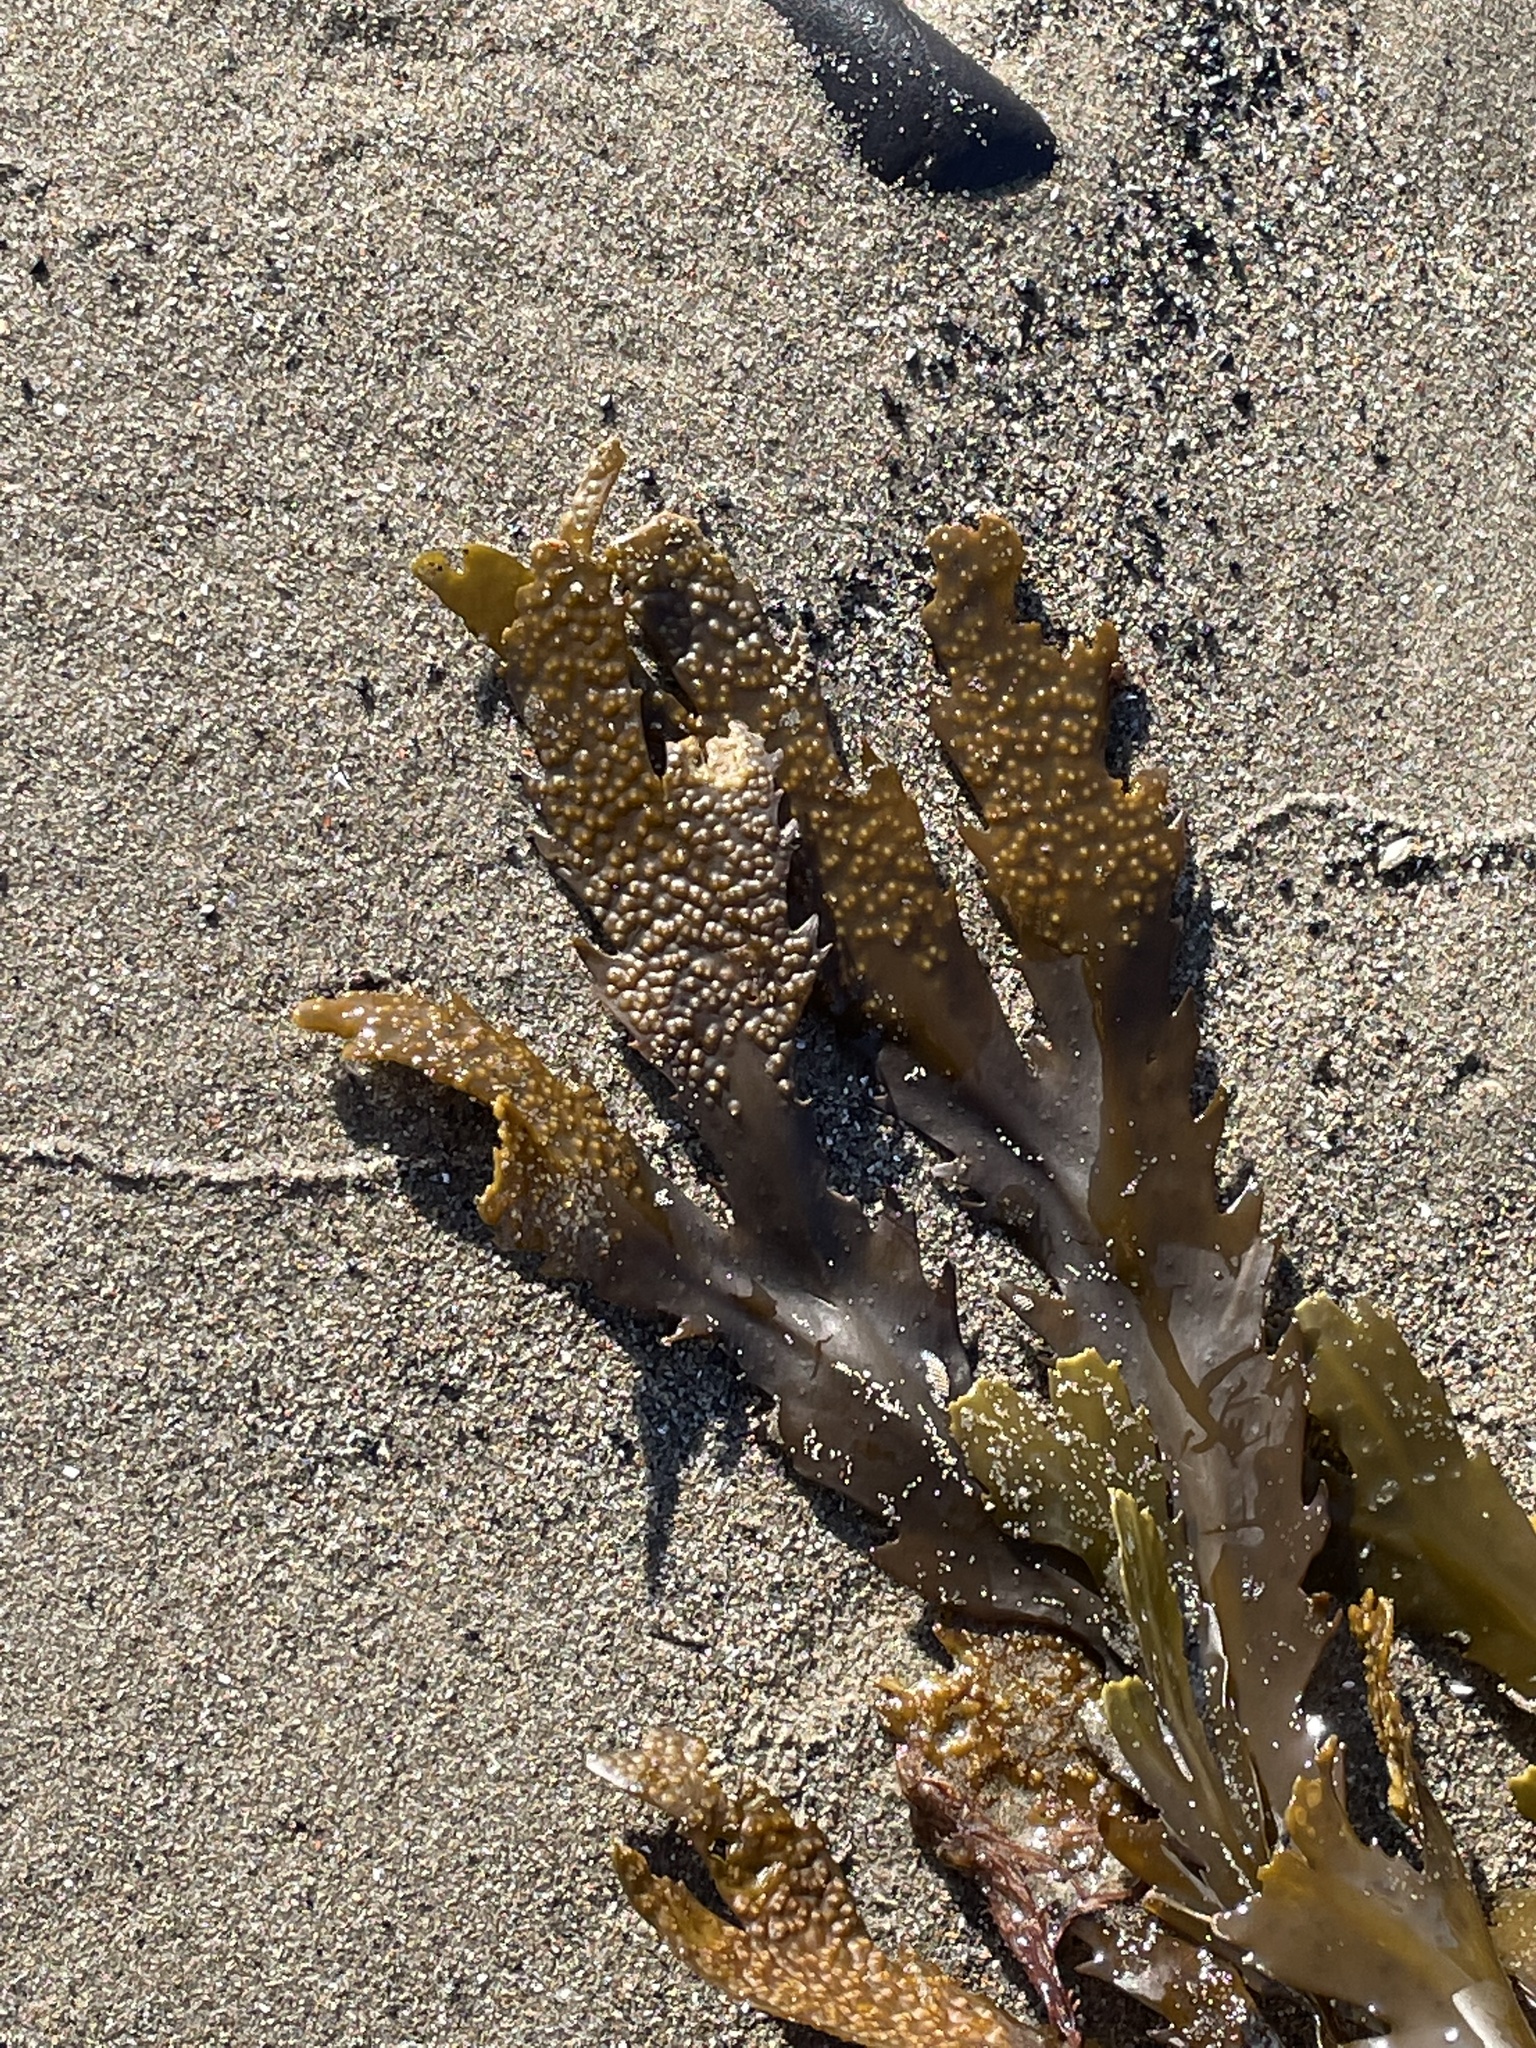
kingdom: Chromista
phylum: Ochrophyta
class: Phaeophyceae
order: Fucales
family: Fucaceae
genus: Fucus
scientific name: Fucus serratus
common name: Toothed wrack
